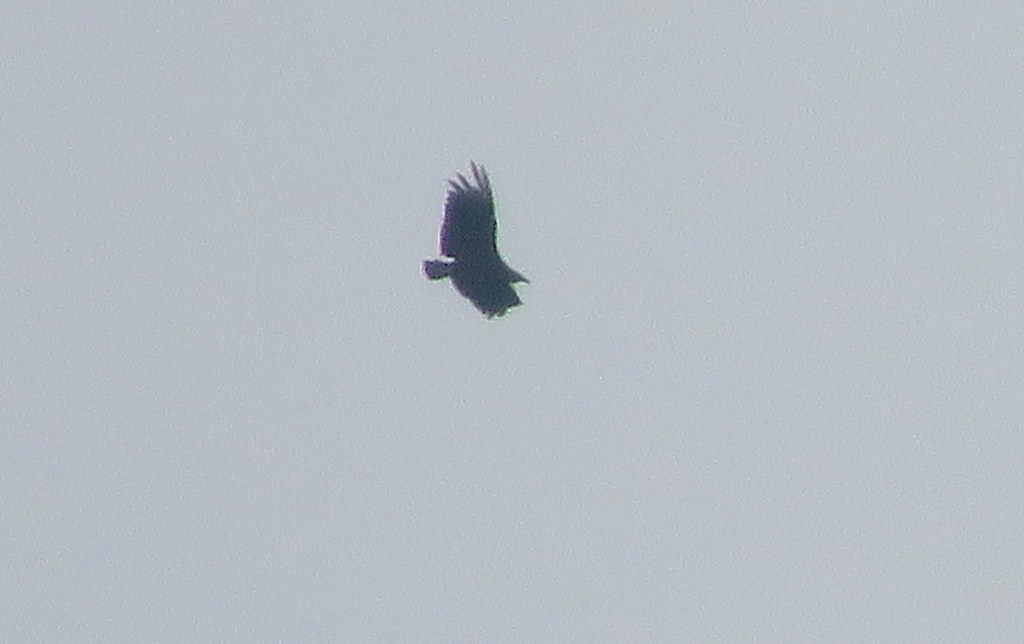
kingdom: Animalia
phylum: Chordata
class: Aves
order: Accipitriformes
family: Cathartidae
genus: Coragyps
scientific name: Coragyps atratus
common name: Black vulture
